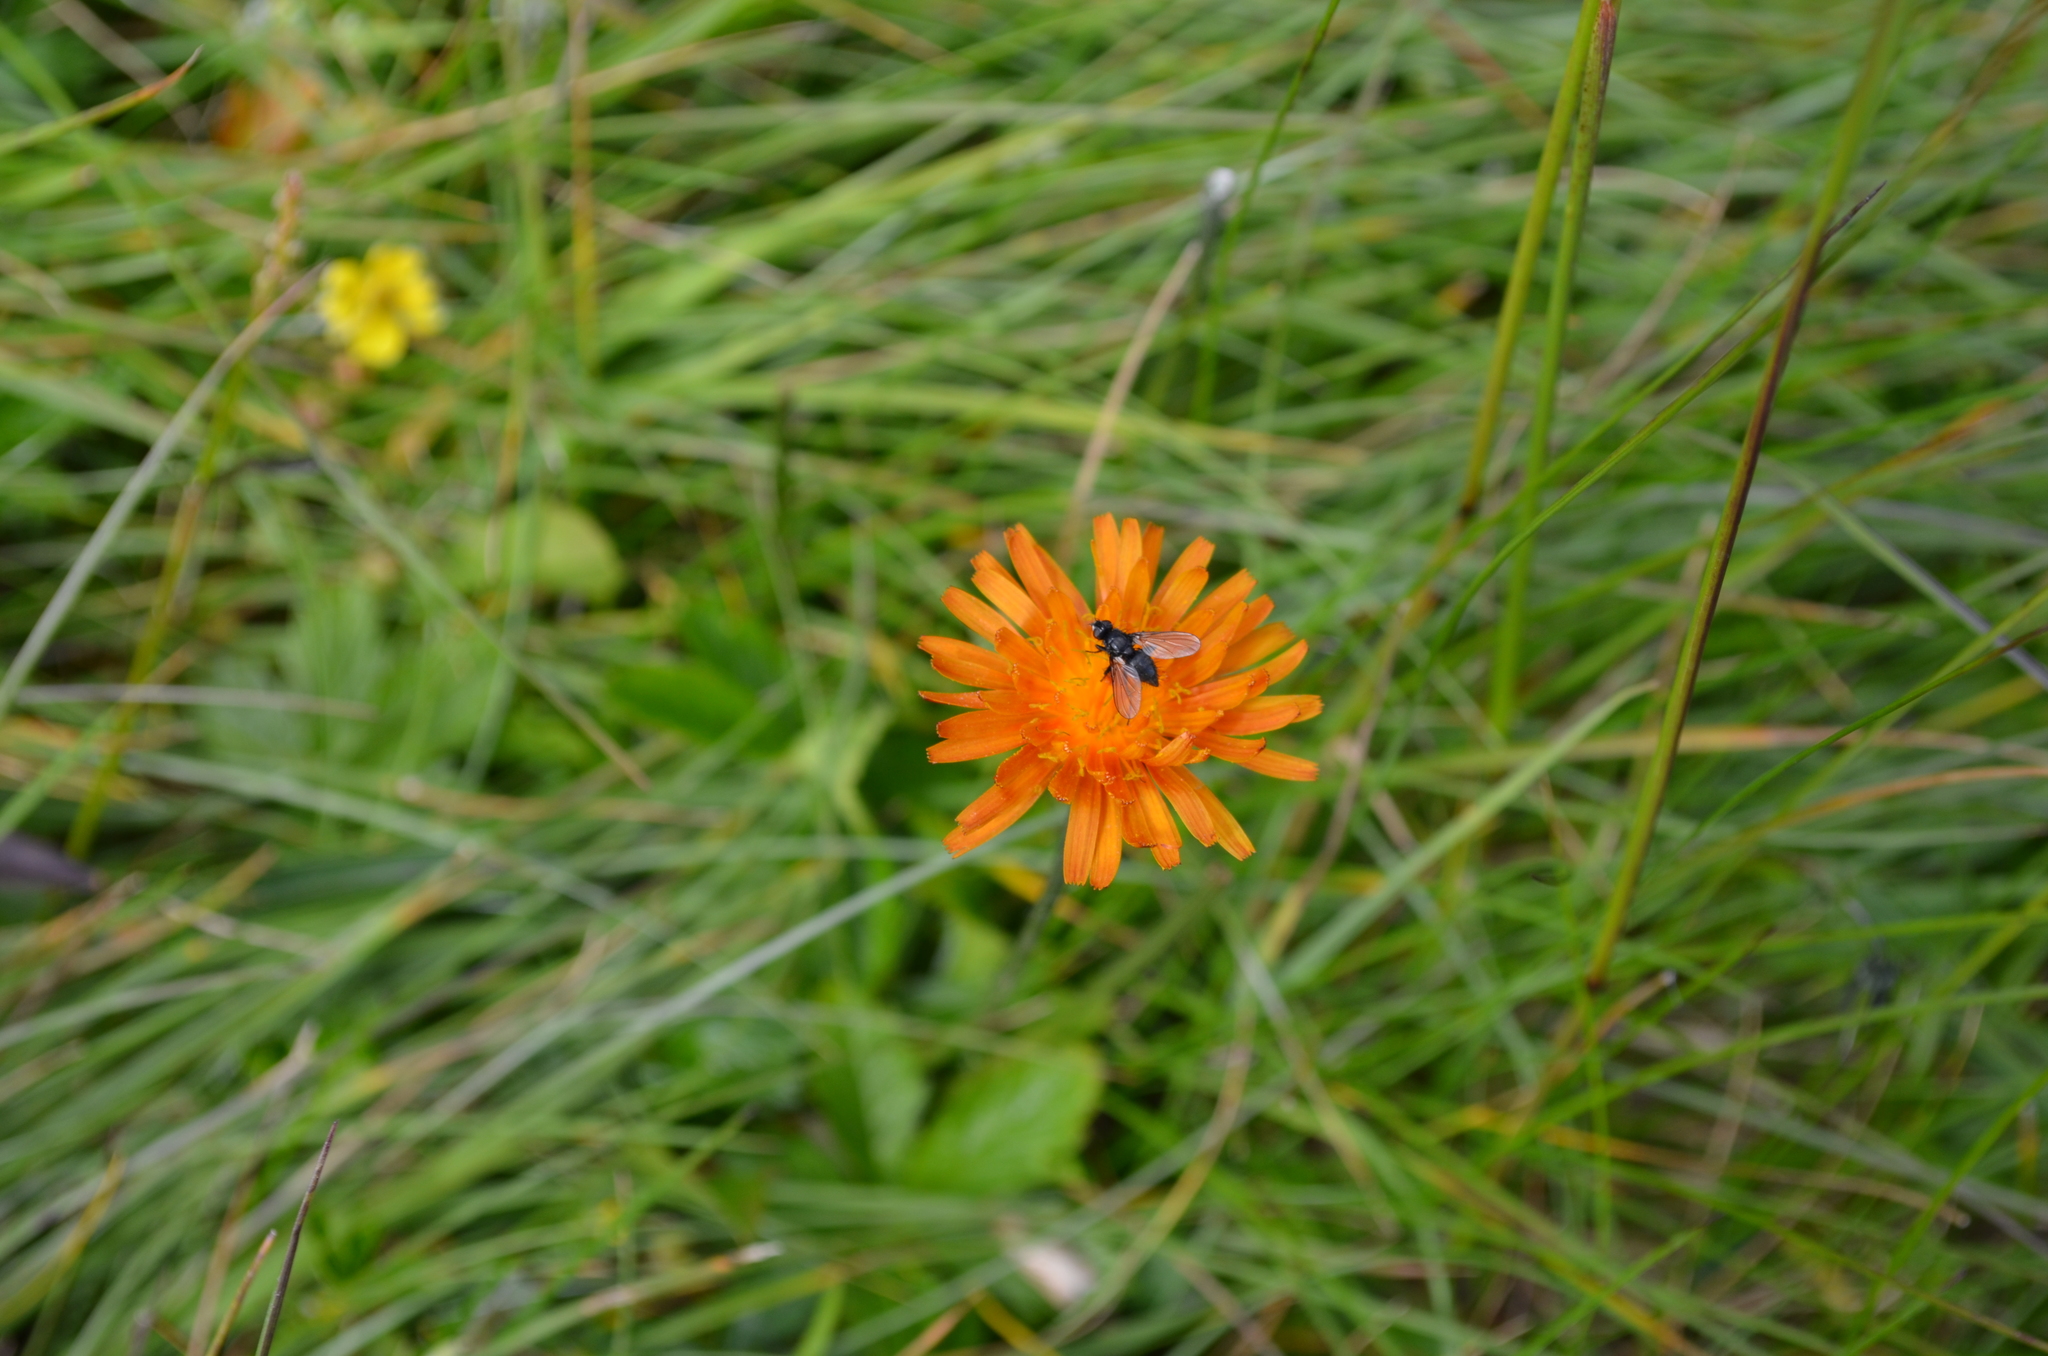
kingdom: Plantae
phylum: Tracheophyta
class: Magnoliopsida
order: Asterales
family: Asteraceae
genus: Crepis
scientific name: Crepis aurea
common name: Golden hawk's-beard
